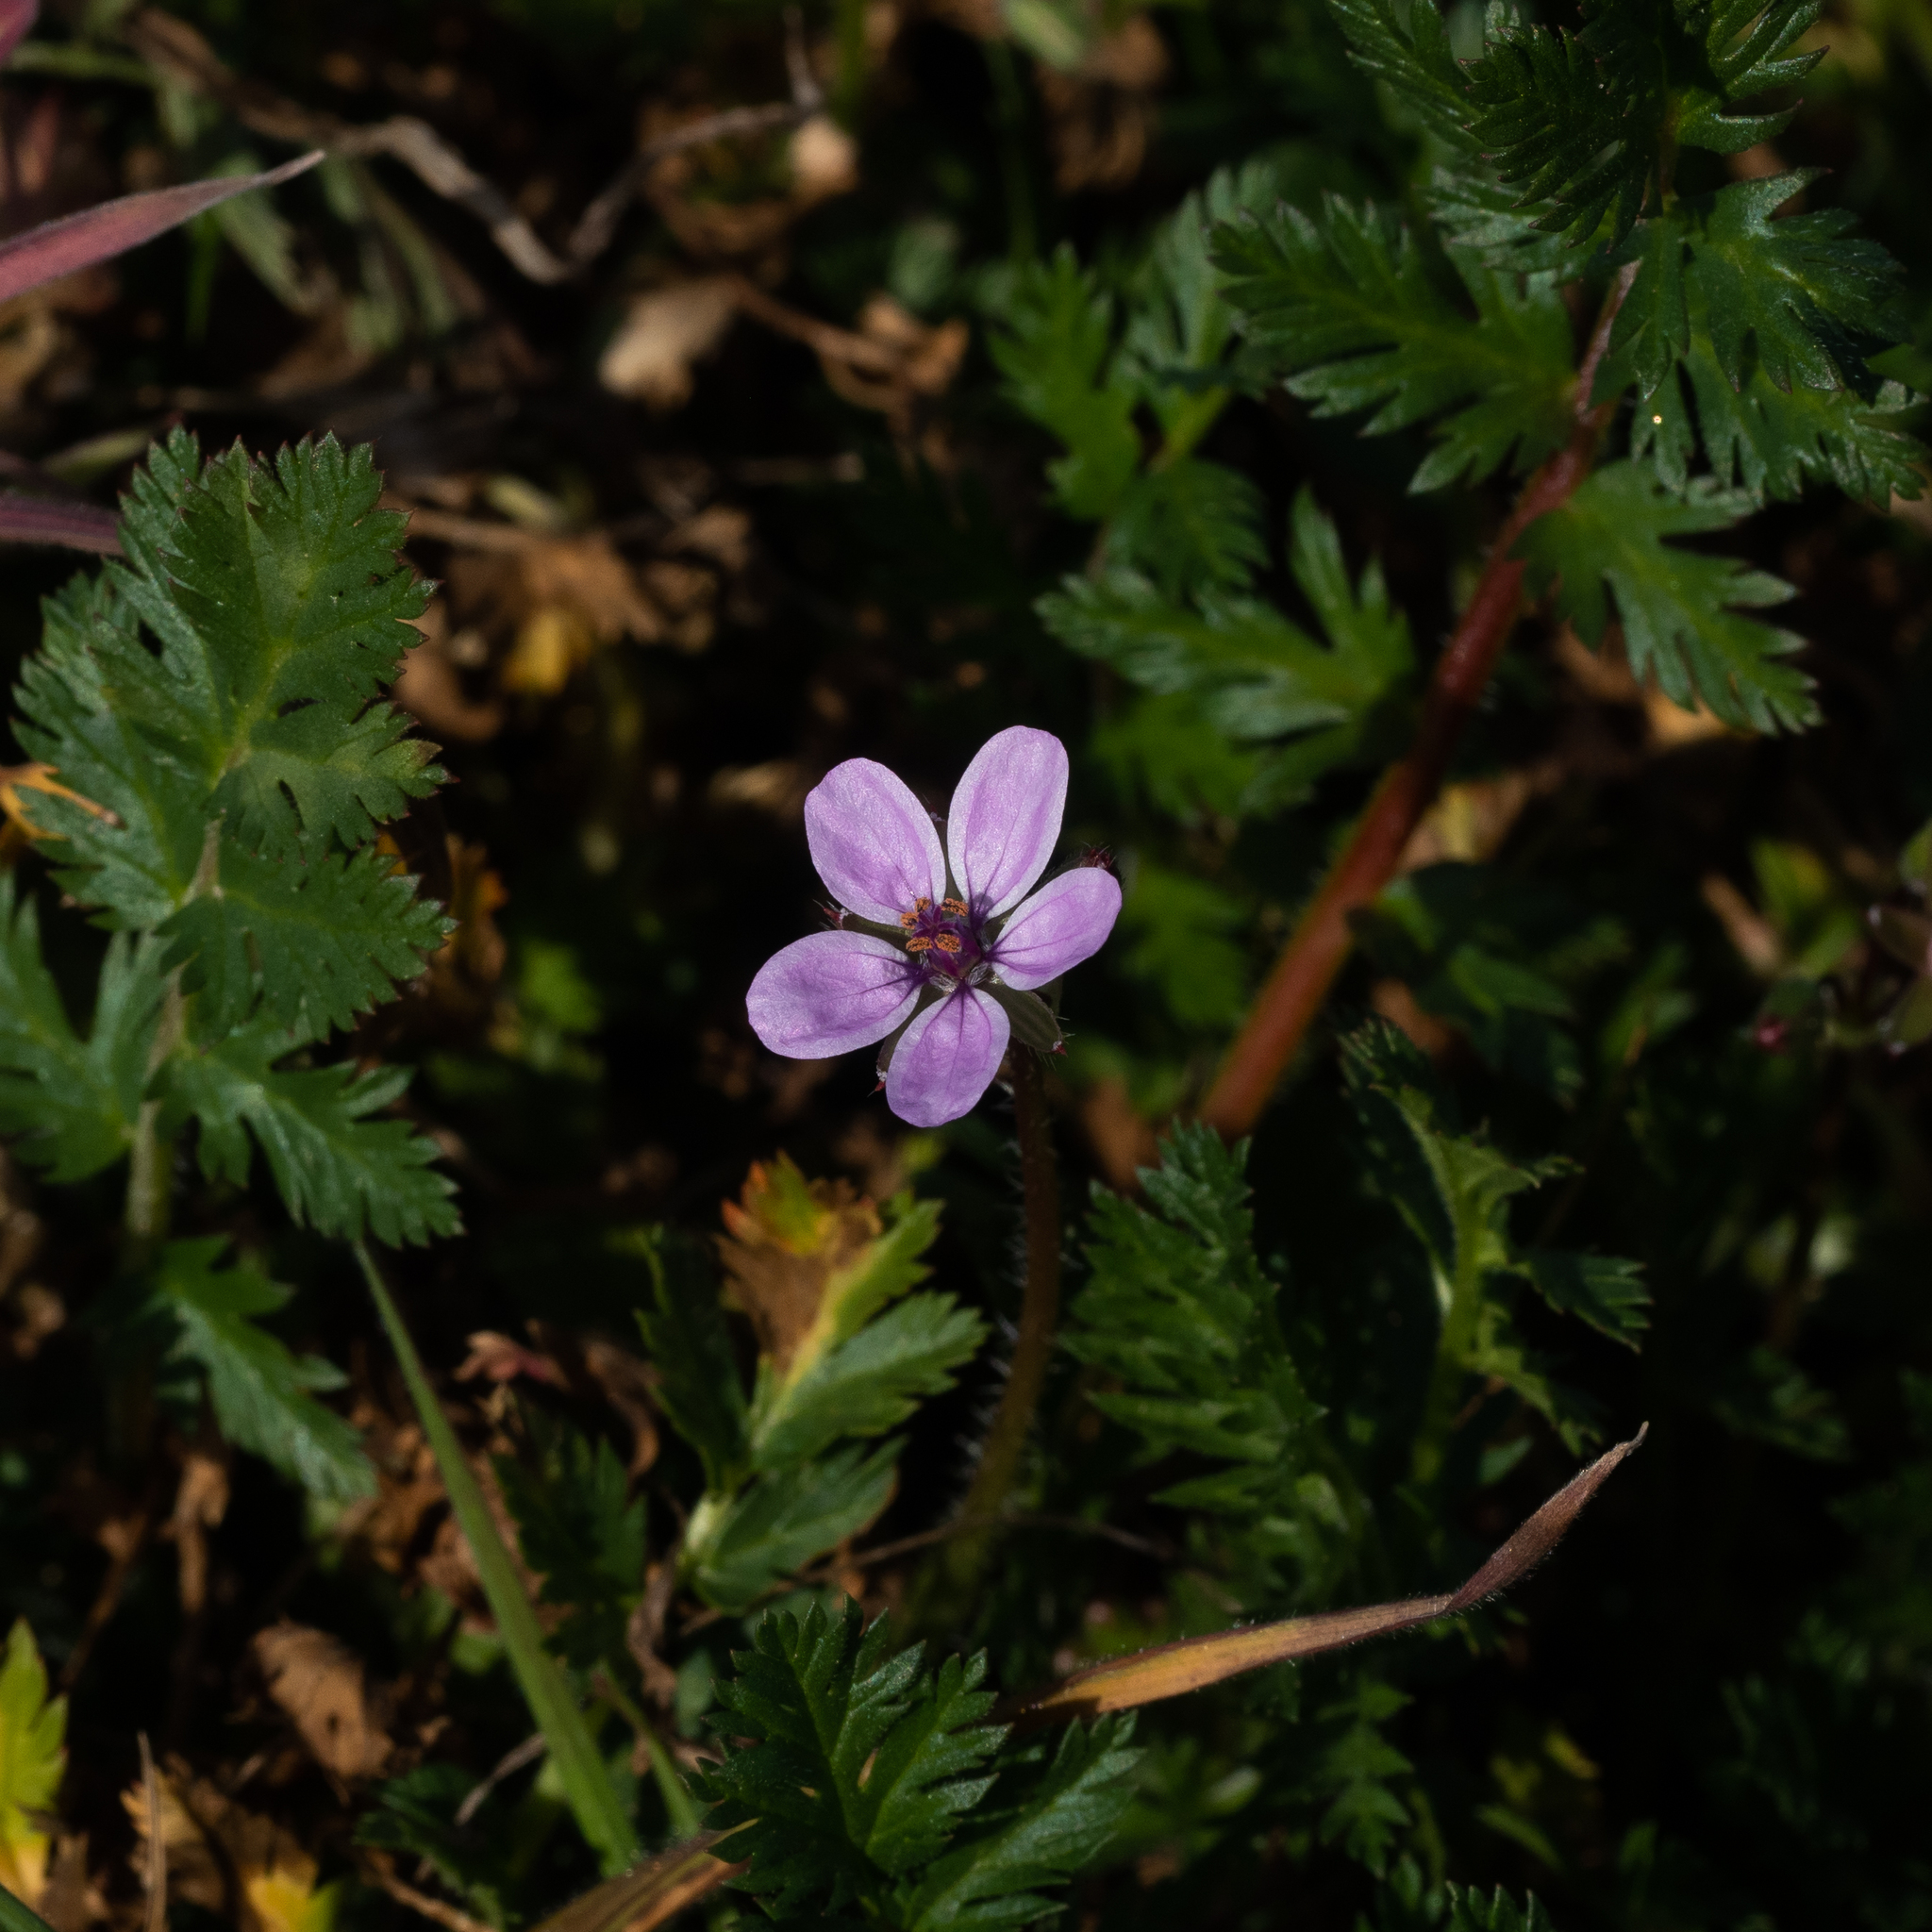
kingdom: Plantae
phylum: Tracheophyta
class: Magnoliopsida
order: Geraniales
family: Geraniaceae
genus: Erodium
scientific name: Erodium cicutarium
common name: Common stork's-bill
